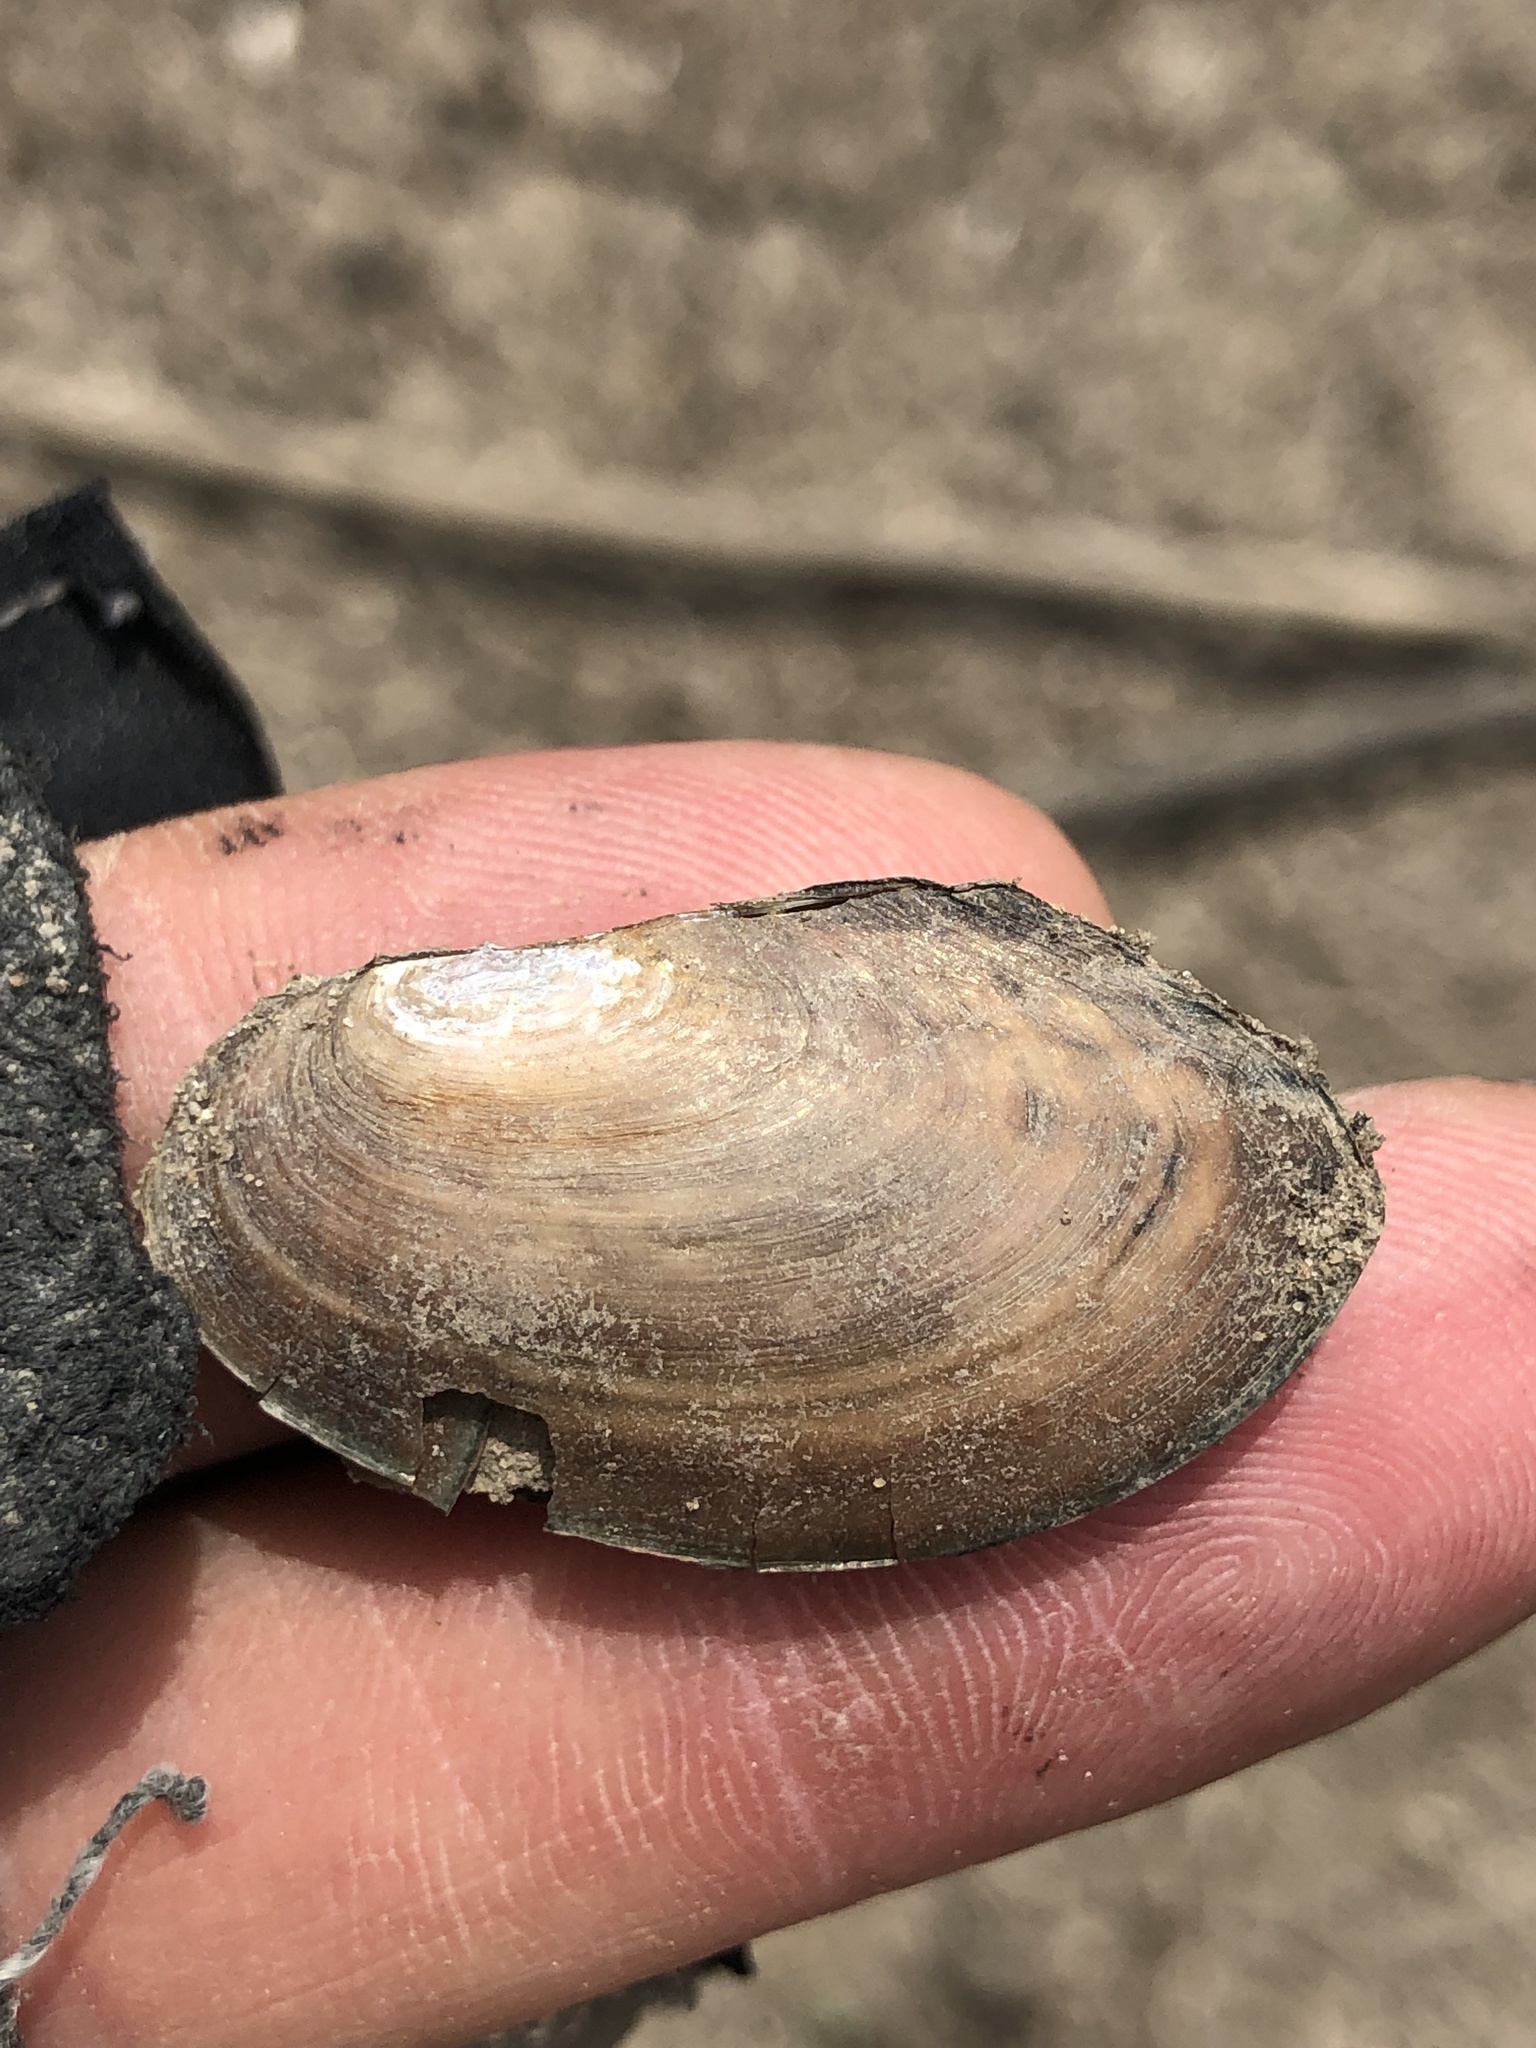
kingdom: Animalia
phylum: Mollusca
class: Bivalvia
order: Unionida
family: Unionidae
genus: Utterbackia
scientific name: Utterbackia imbecillis
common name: Paper pondshell
